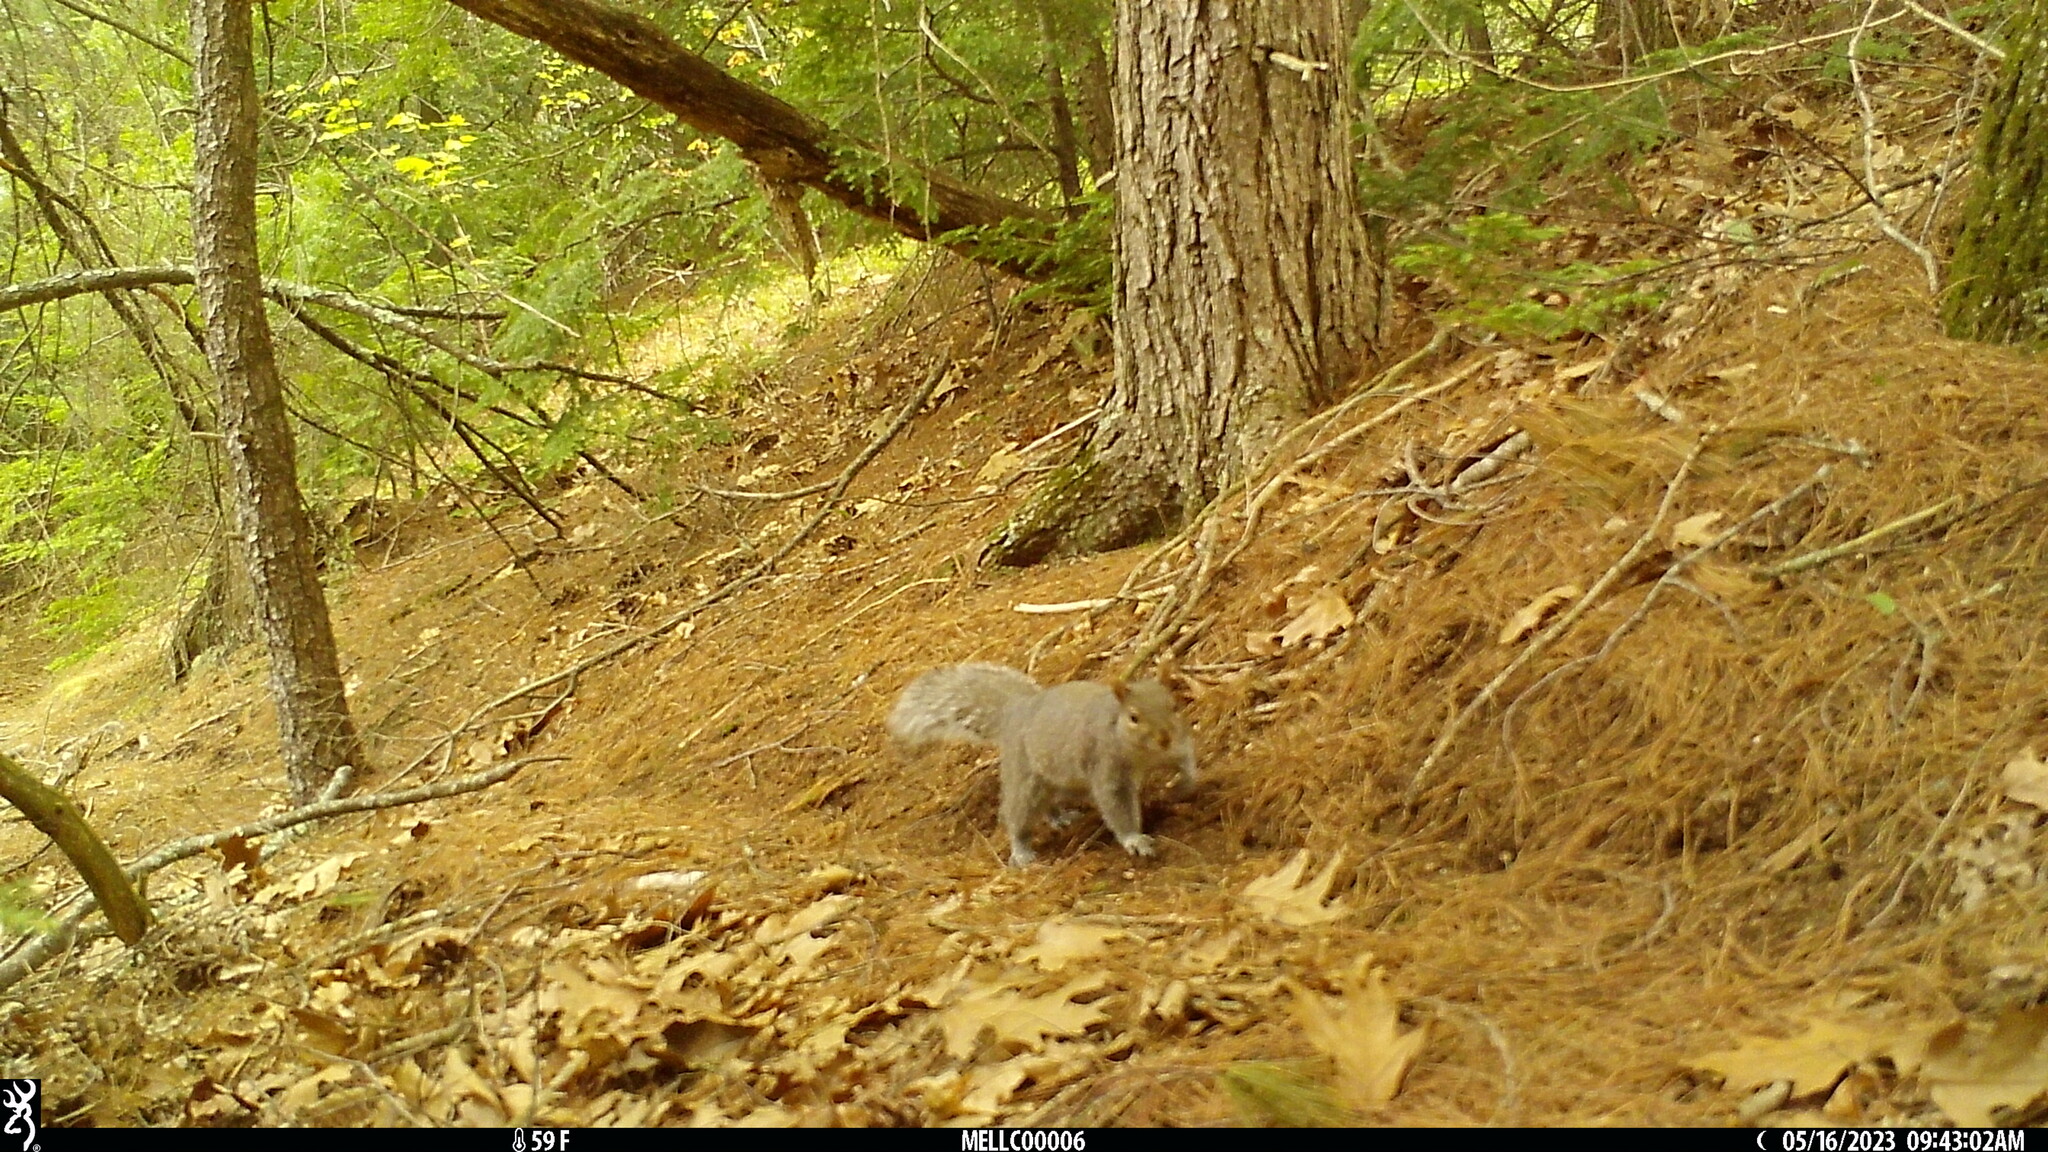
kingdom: Animalia
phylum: Chordata
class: Mammalia
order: Rodentia
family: Sciuridae
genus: Sciurus
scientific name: Sciurus carolinensis
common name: Eastern gray squirrel
